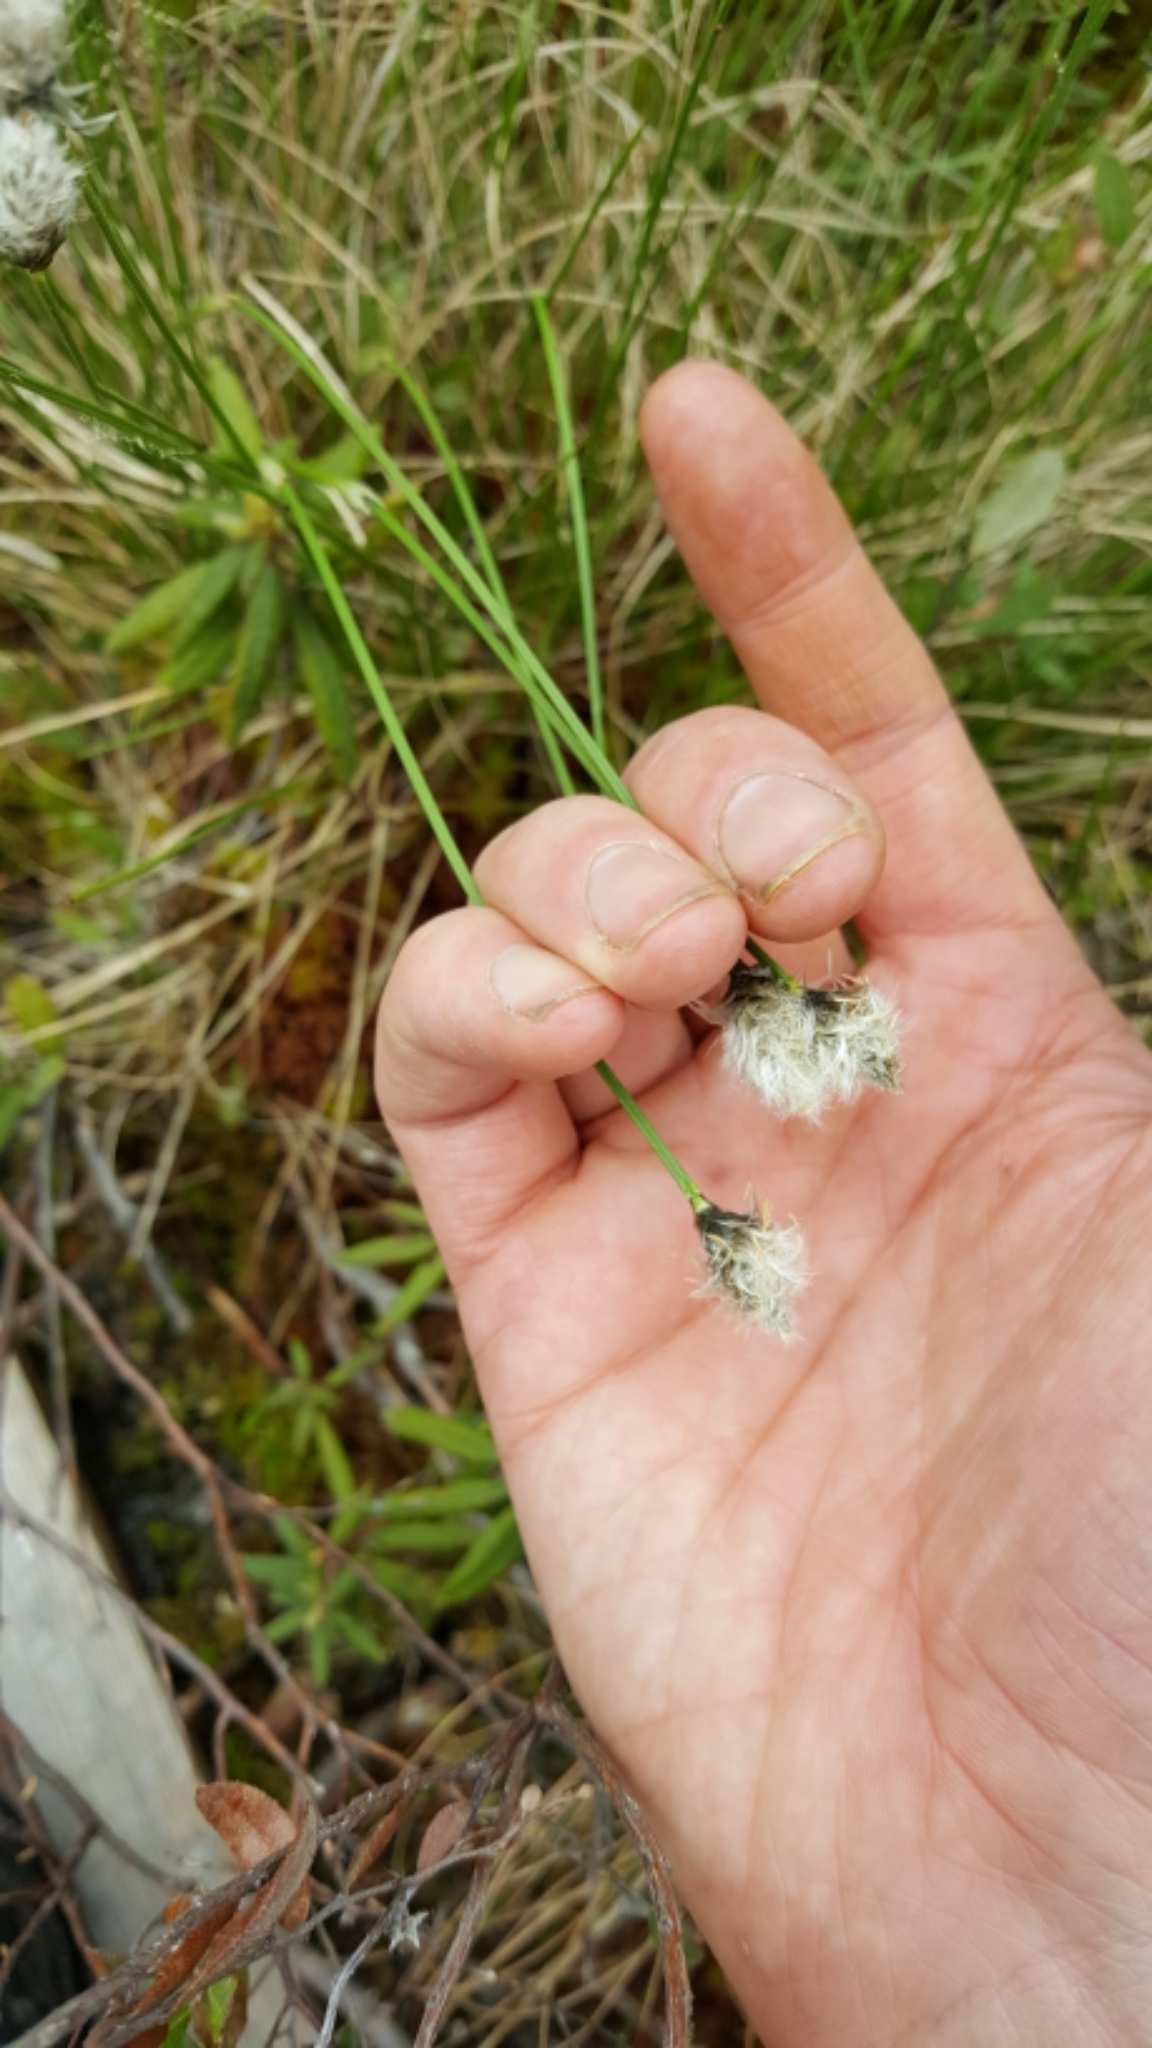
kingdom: Plantae
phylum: Tracheophyta
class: Liliopsida
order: Poales
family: Cyperaceae
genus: Eriophorum
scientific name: Eriophorum vaginatum
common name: Hare's-tail cottongrass
